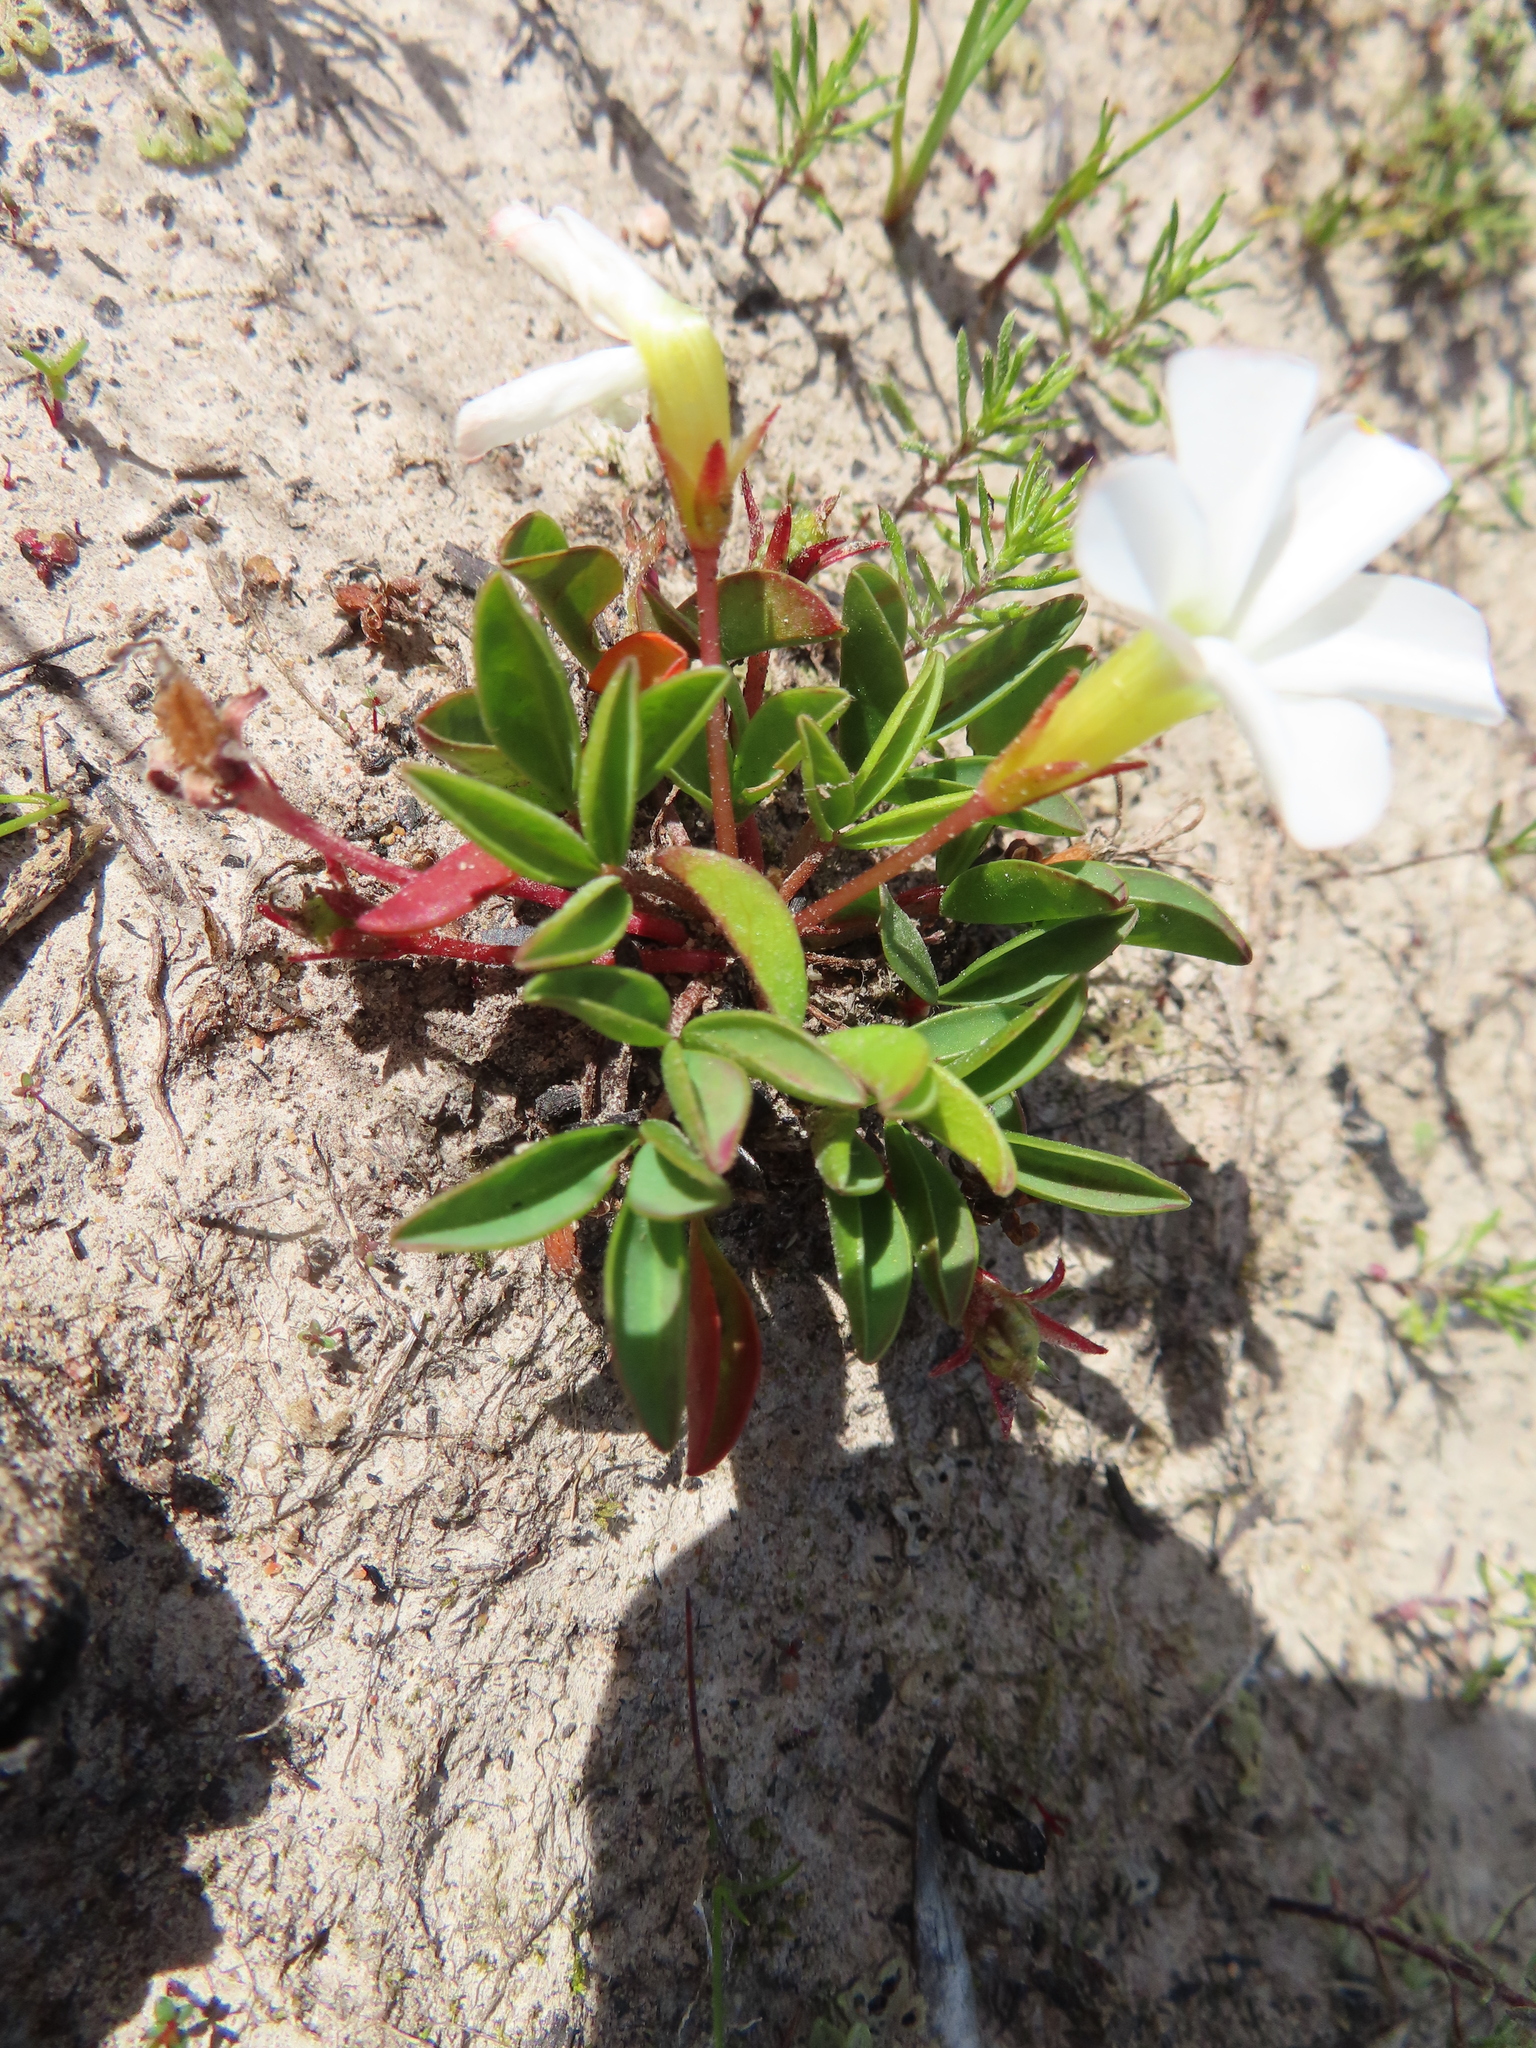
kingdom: Plantae
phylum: Tracheophyta
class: Magnoliopsida
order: Oxalidales
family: Oxalidaceae
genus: Oxalis
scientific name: Oxalis minuta
